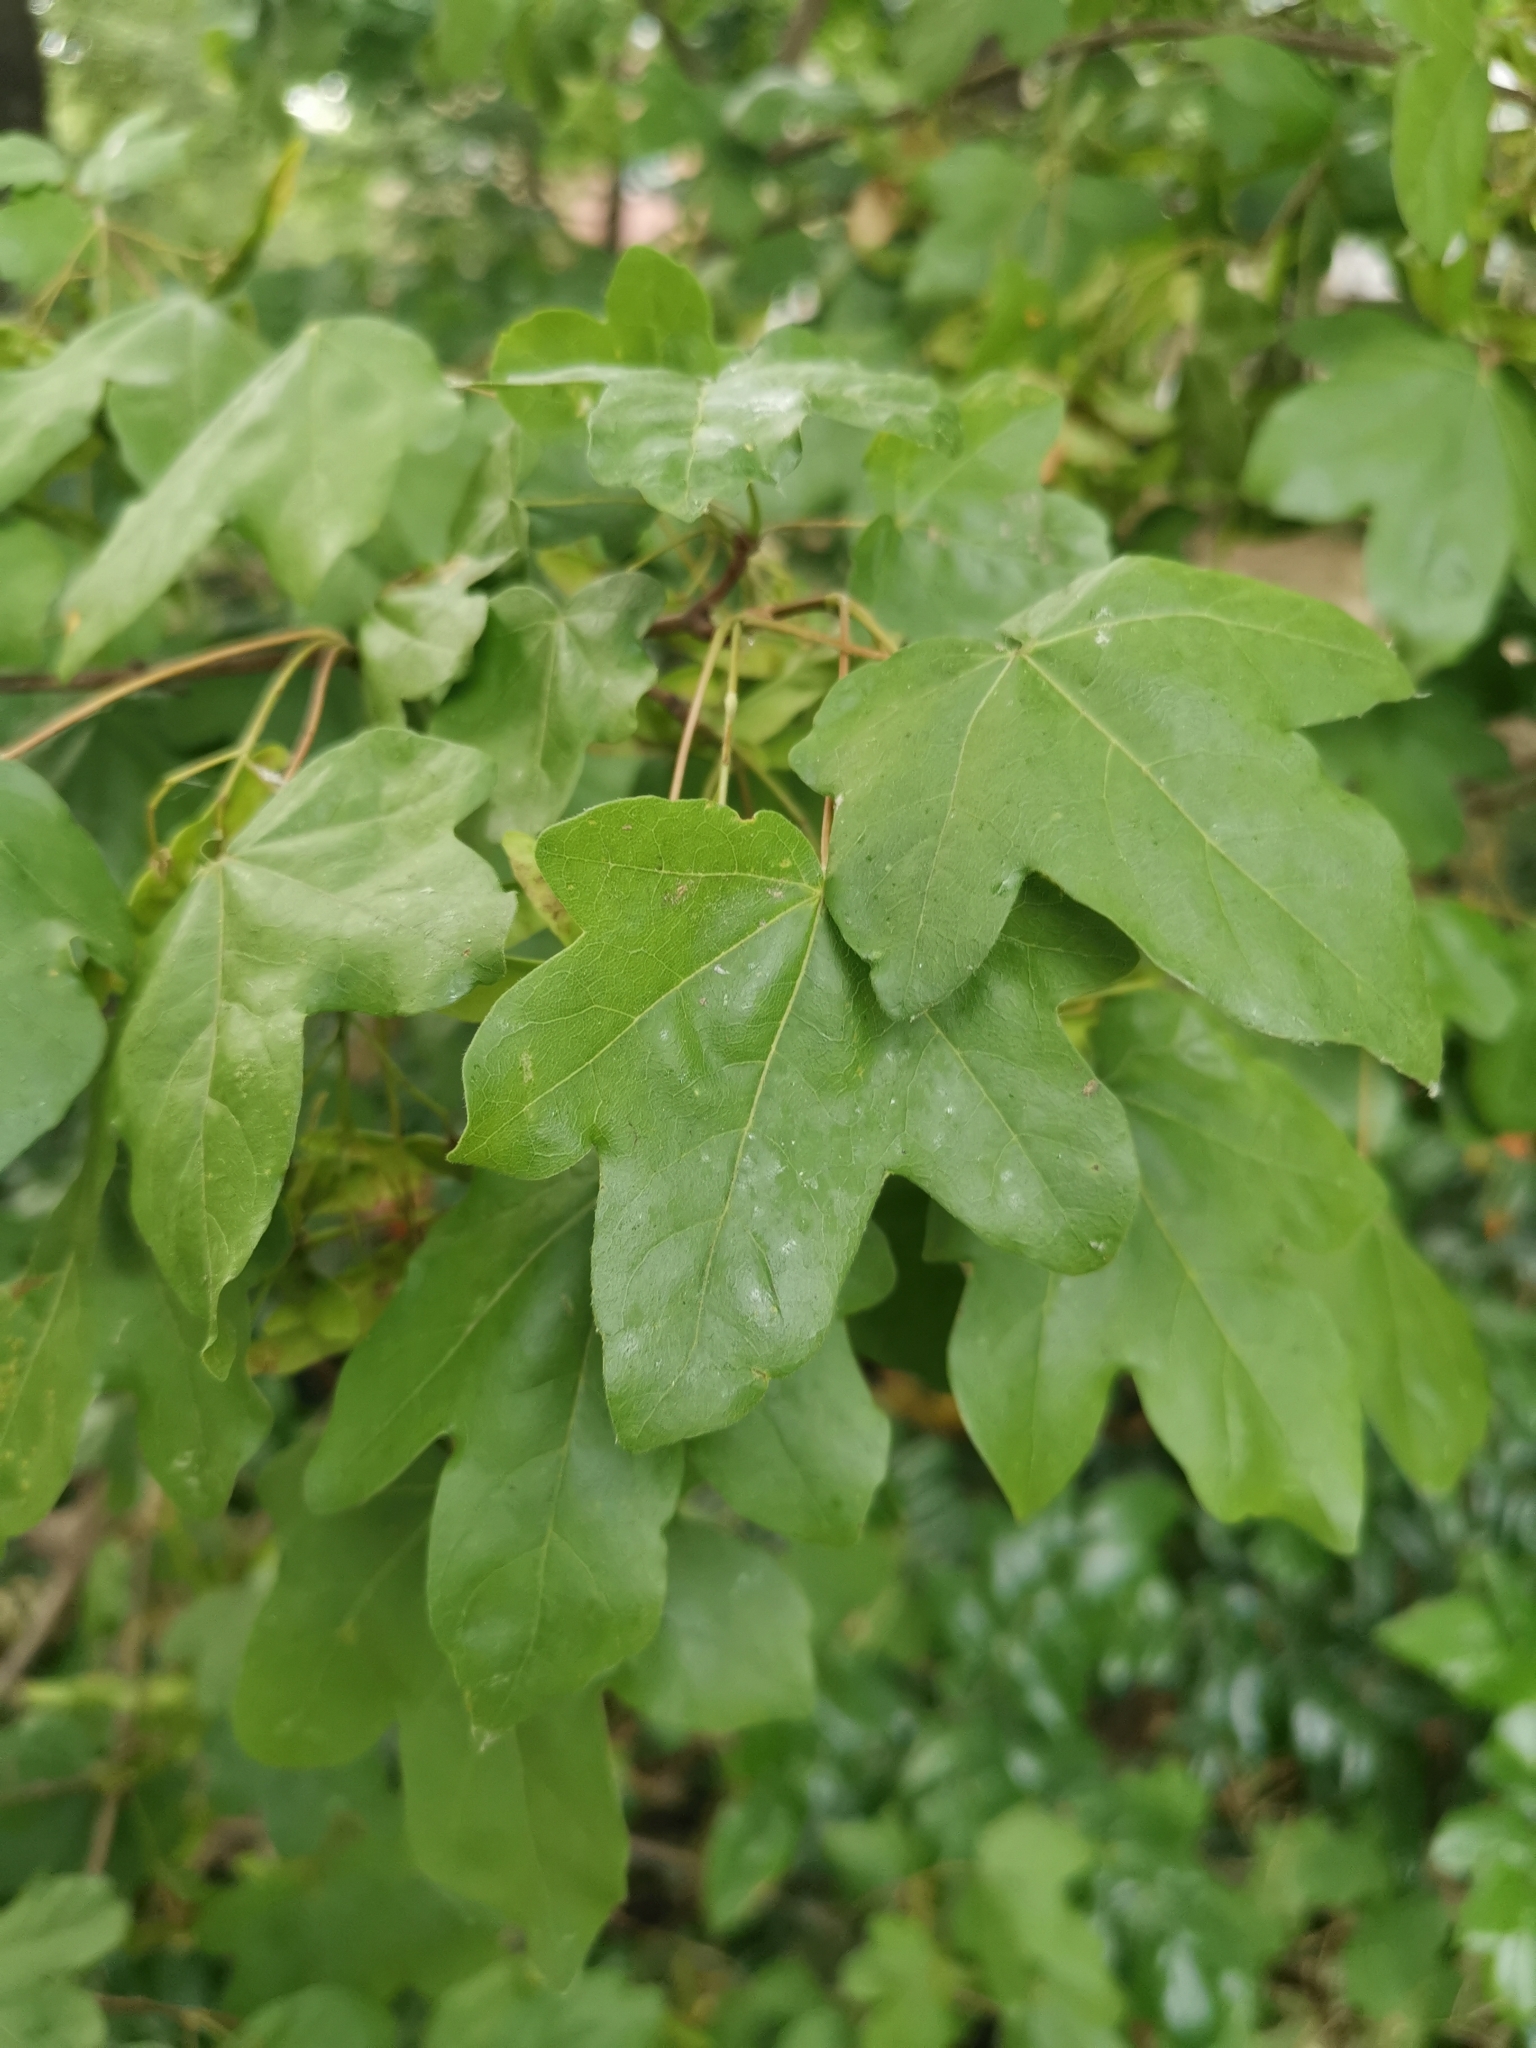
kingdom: Plantae
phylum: Tracheophyta
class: Magnoliopsida
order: Sapindales
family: Sapindaceae
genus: Acer
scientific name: Acer campestre
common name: Field maple
